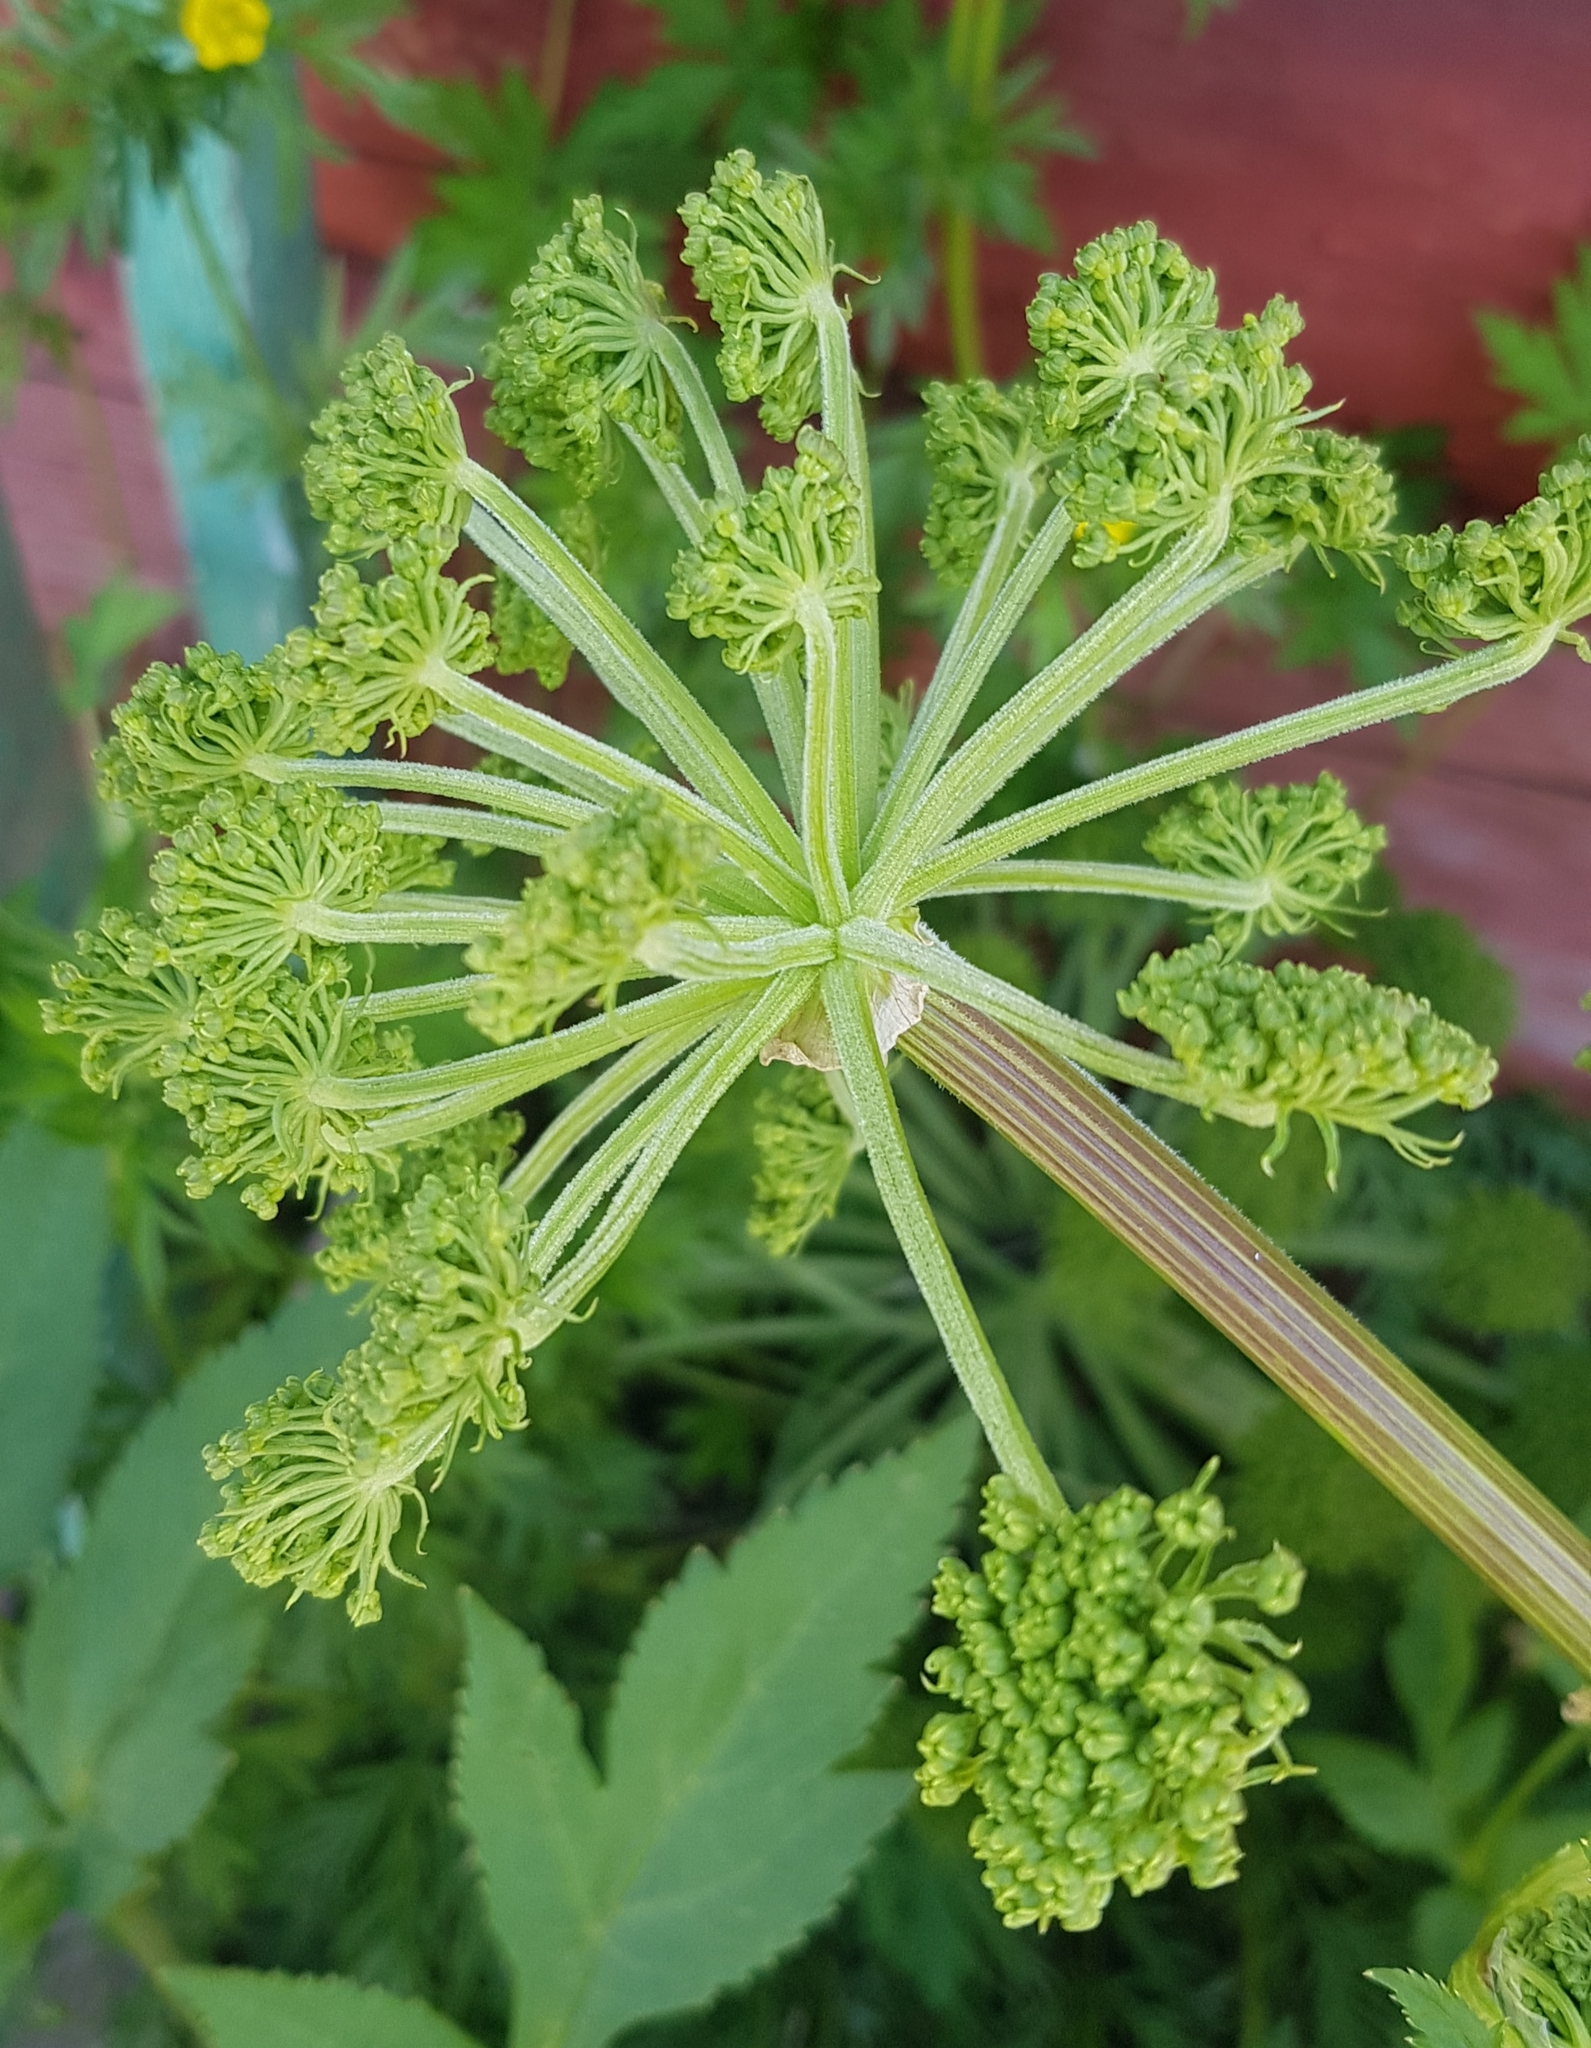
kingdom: Plantae
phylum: Tracheophyta
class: Magnoliopsida
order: Apiales
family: Apiaceae
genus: Angelica
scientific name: Angelica sylvestris
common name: Wild angelica
